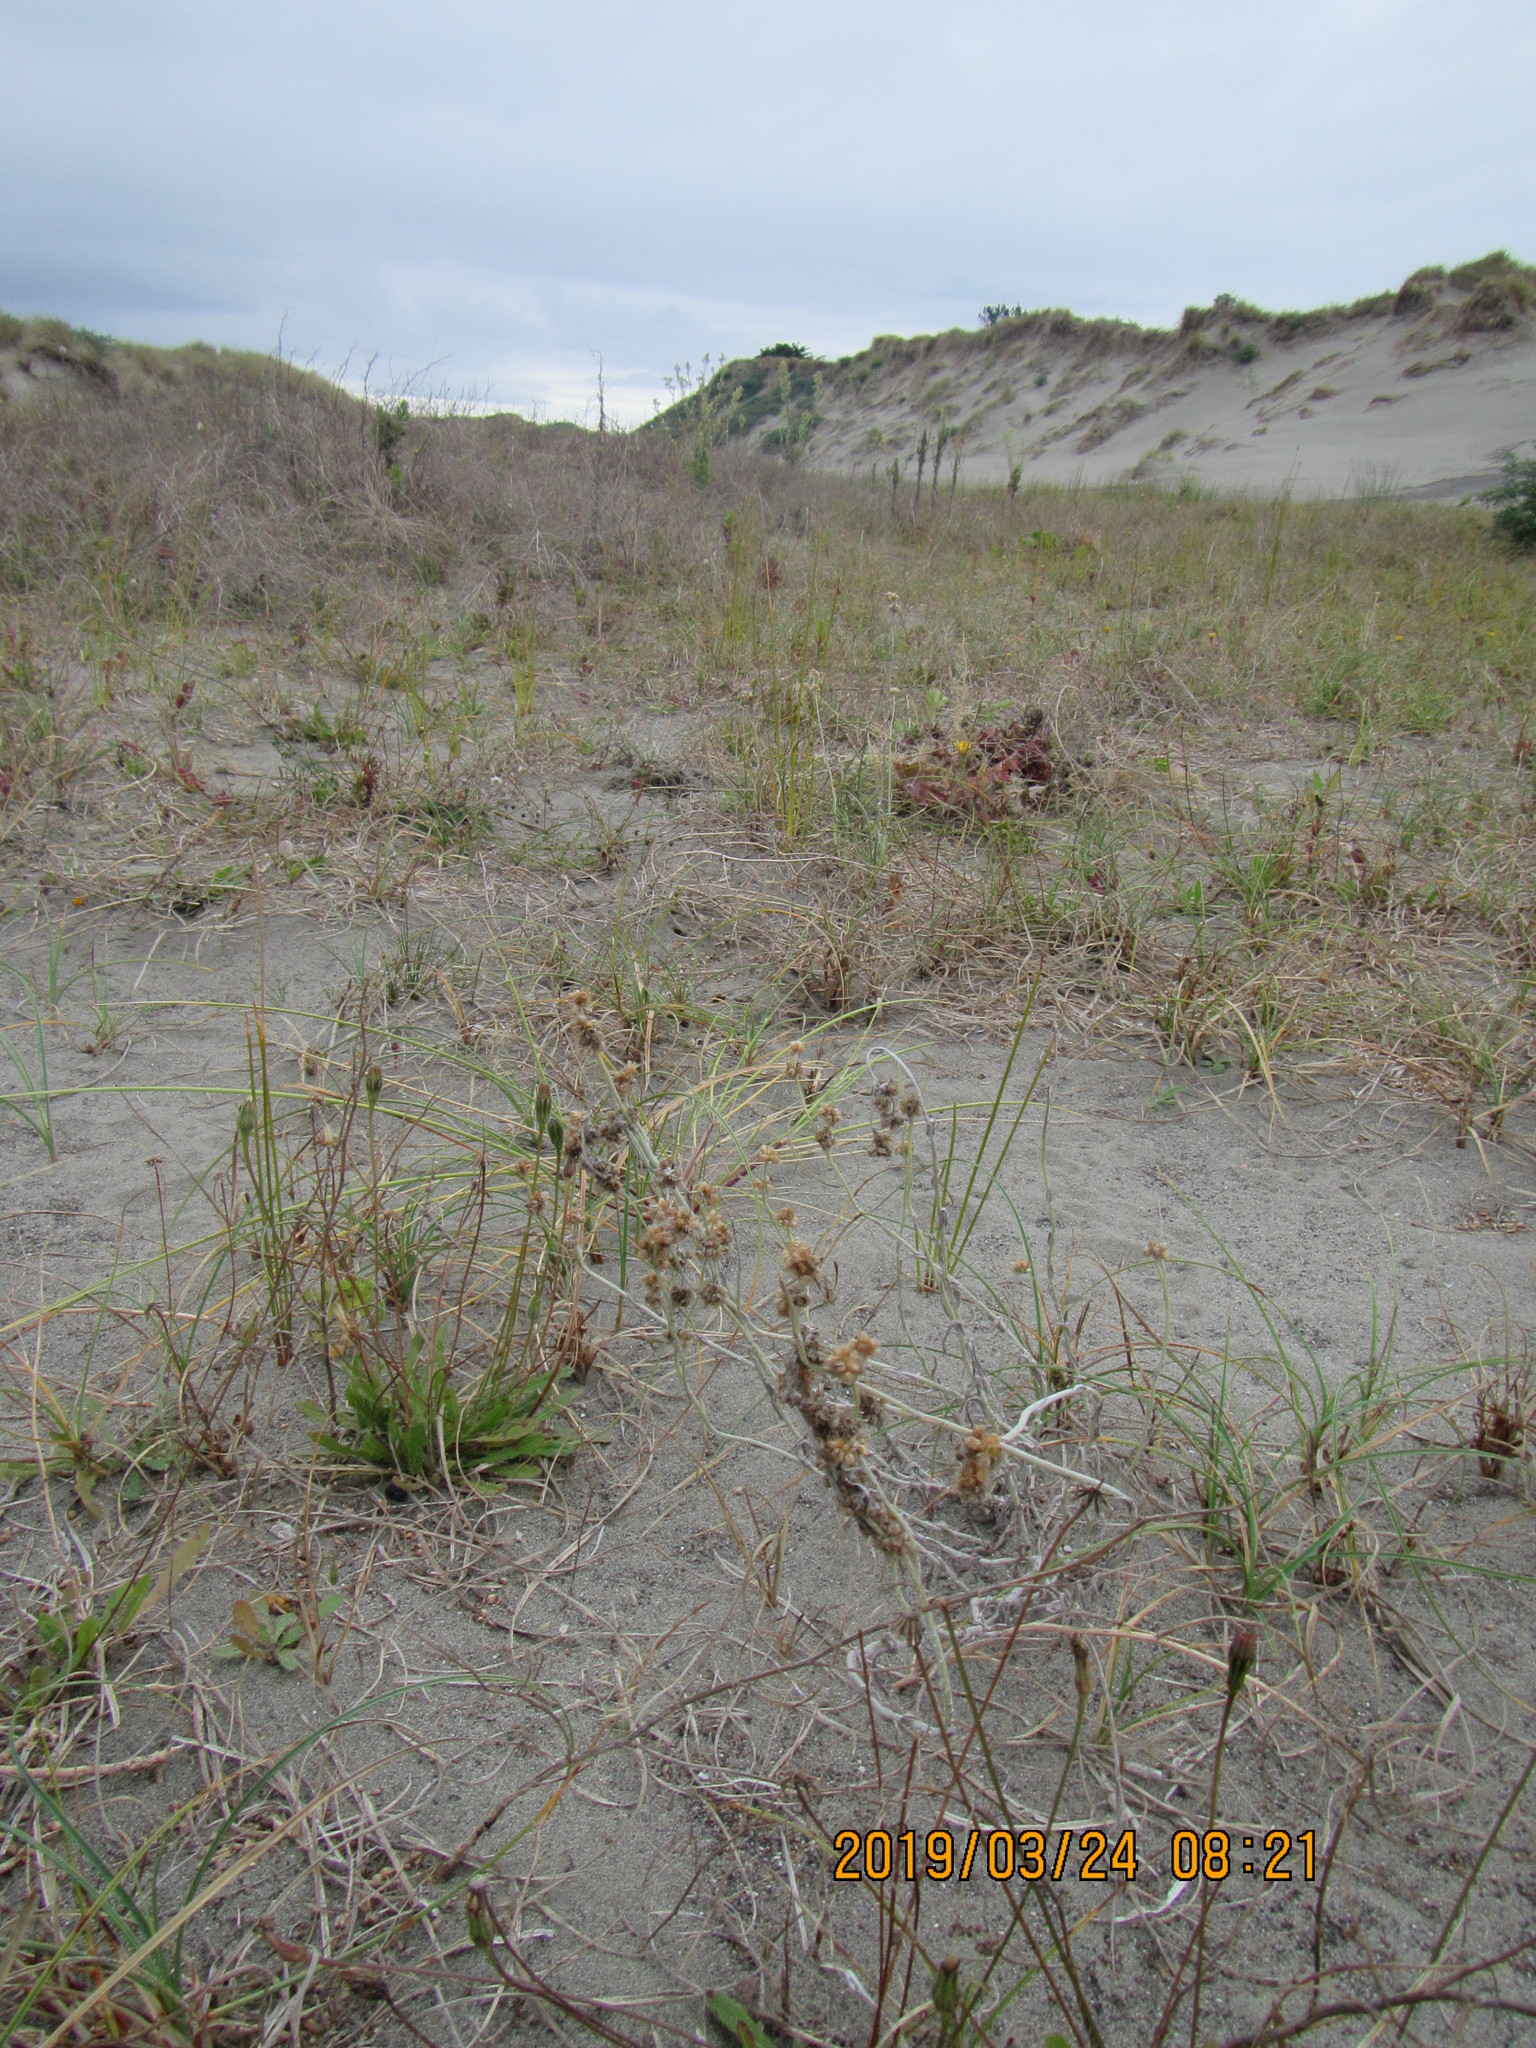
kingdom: Plantae
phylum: Tracheophyta
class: Magnoliopsida
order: Asterales
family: Asteraceae
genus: Helichrysum
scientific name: Helichrysum luteoalbum
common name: Daisy
